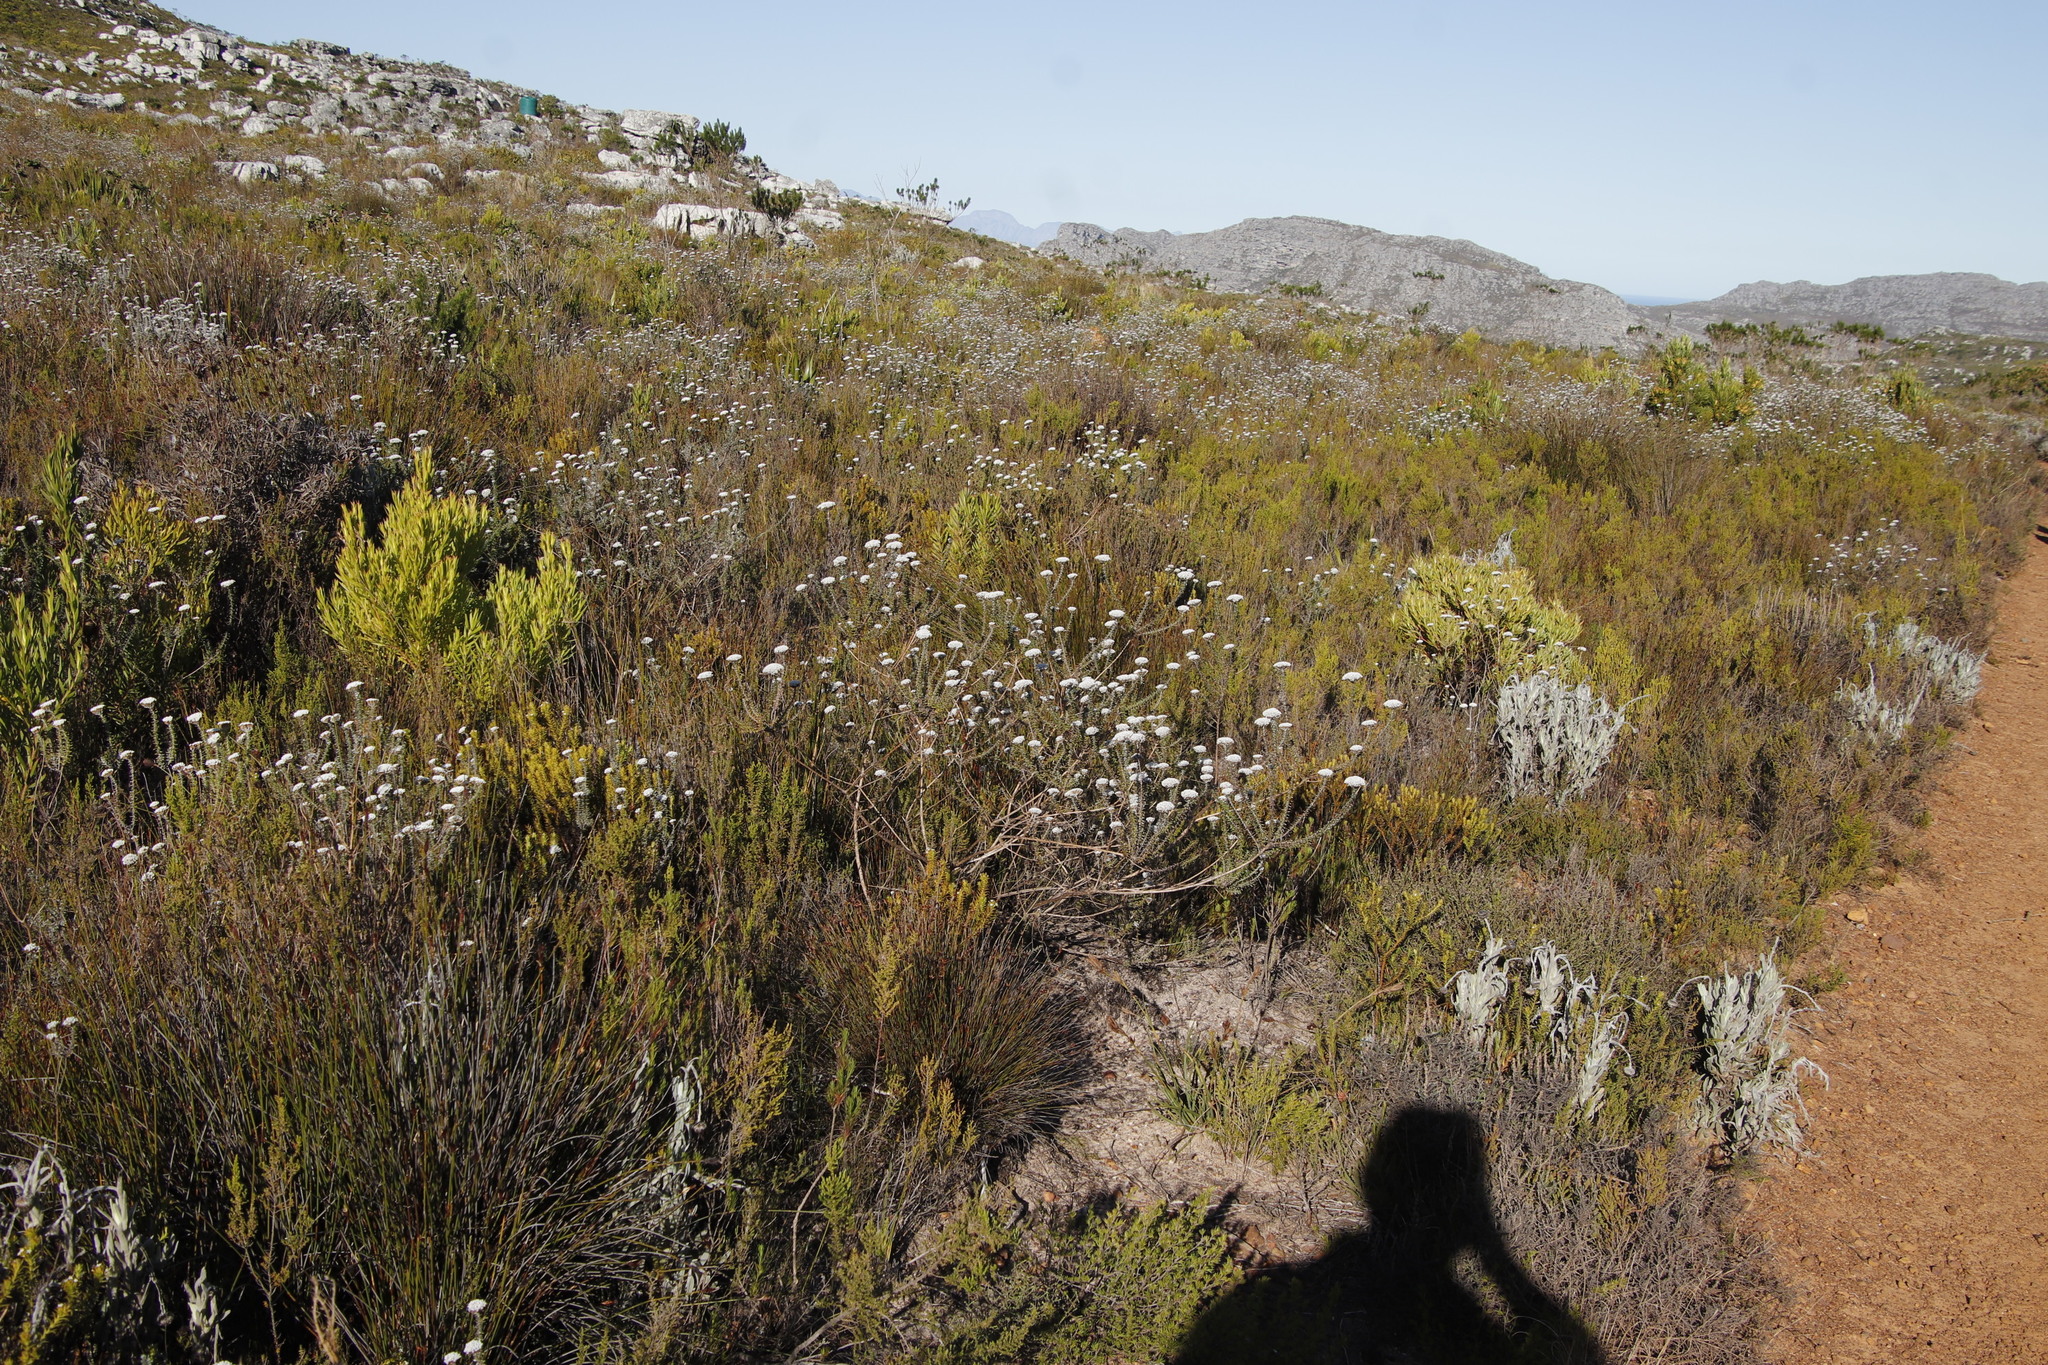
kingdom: Plantae
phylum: Tracheophyta
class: Magnoliopsida
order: Asterales
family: Asteraceae
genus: Metalasia
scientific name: Metalasia densa
